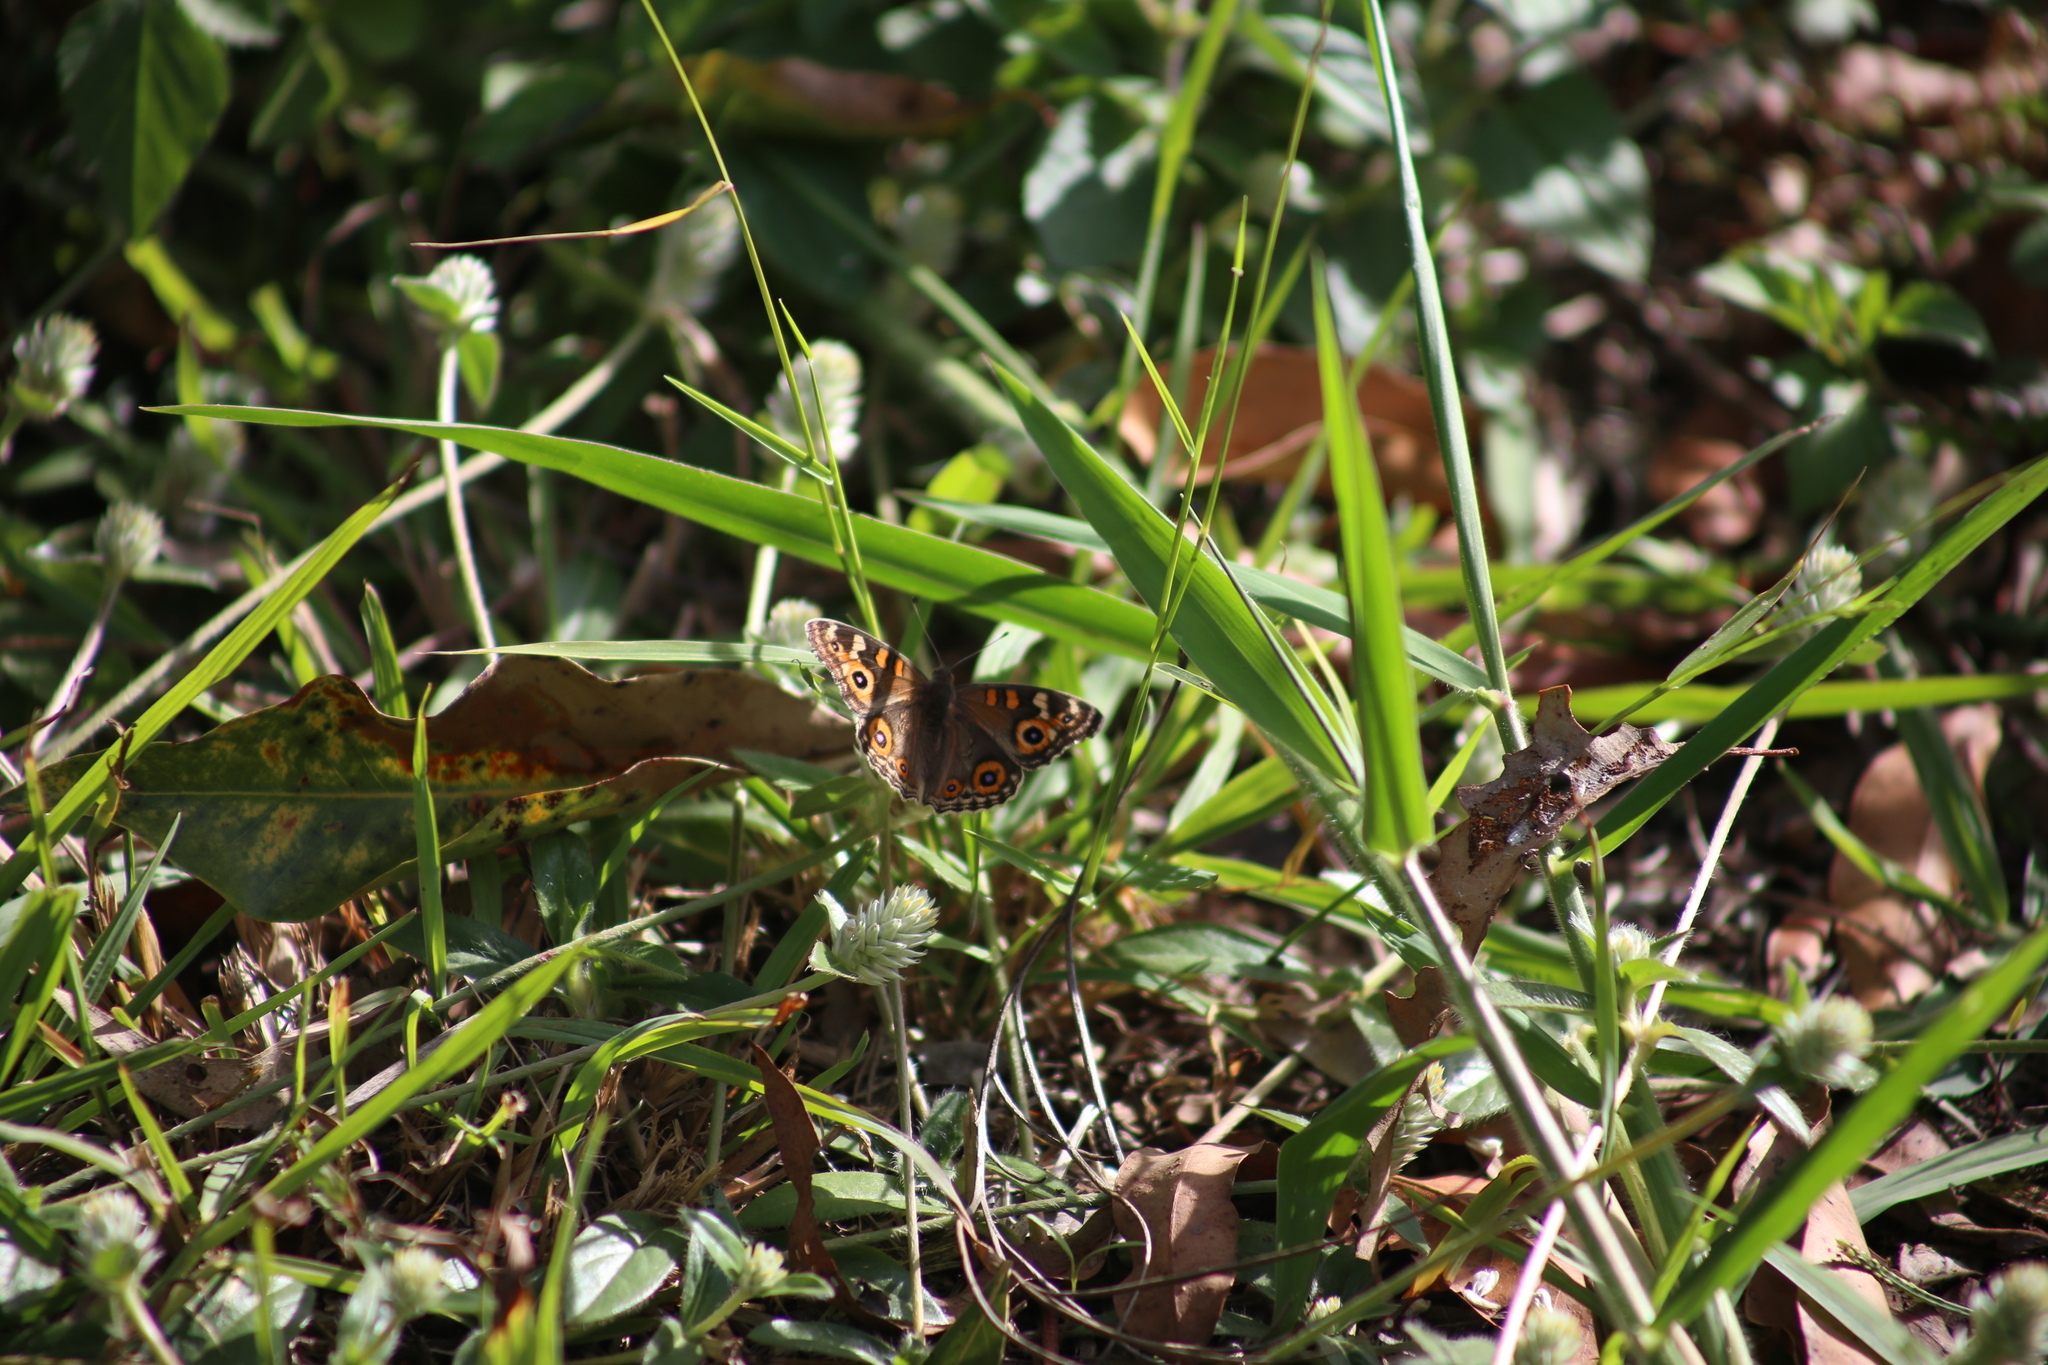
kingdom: Animalia
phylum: Arthropoda
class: Insecta
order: Lepidoptera
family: Nymphalidae
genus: Junonia
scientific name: Junonia villida
